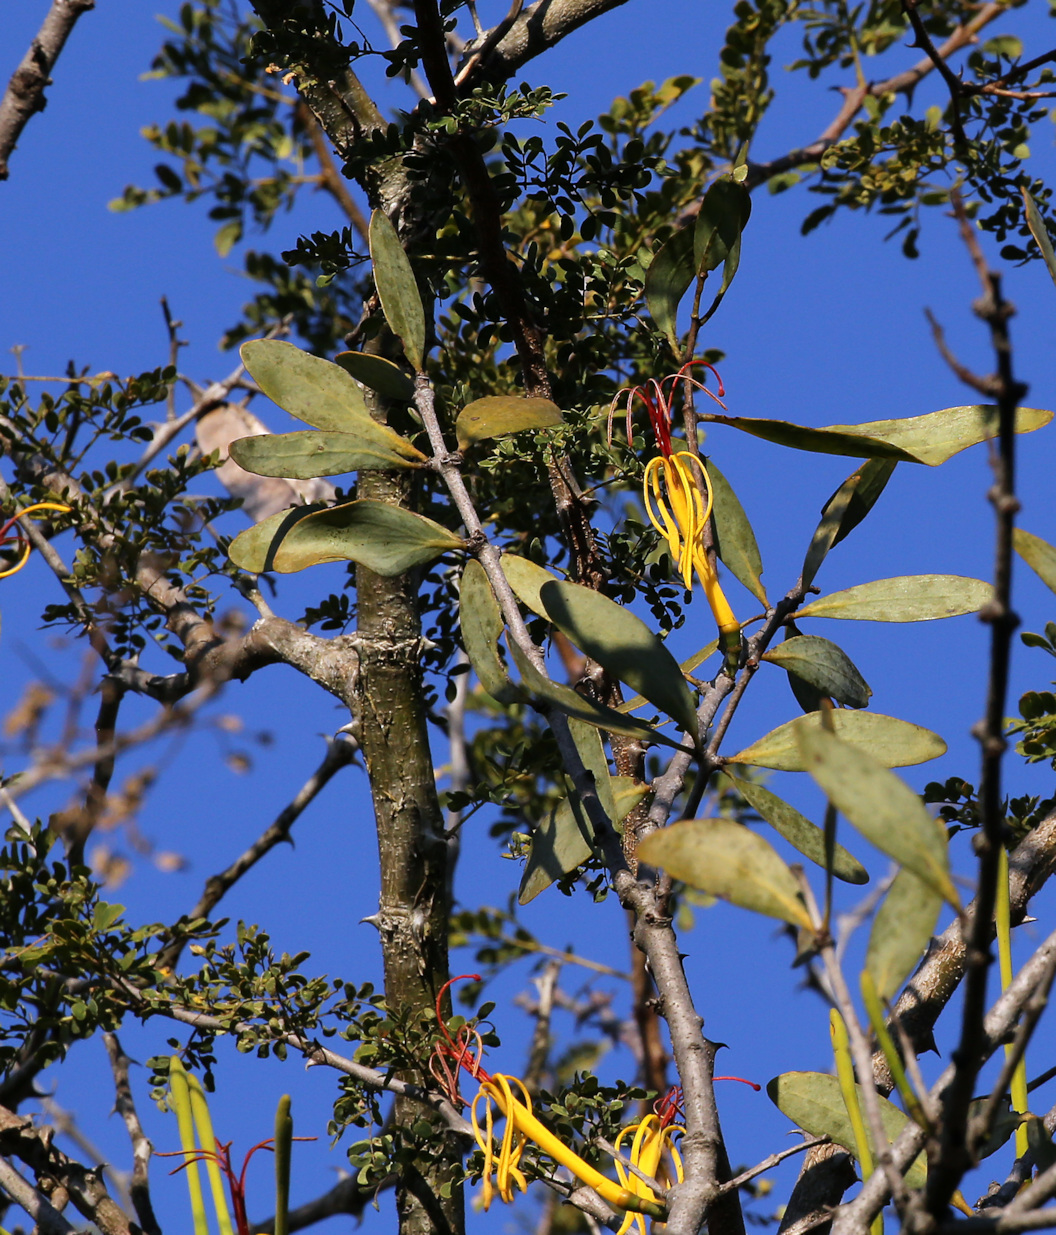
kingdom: Plantae
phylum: Tracheophyta
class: Magnoliopsida
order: Santalales
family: Loranthaceae
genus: Pedistylis
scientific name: Pedistylis galpinii
